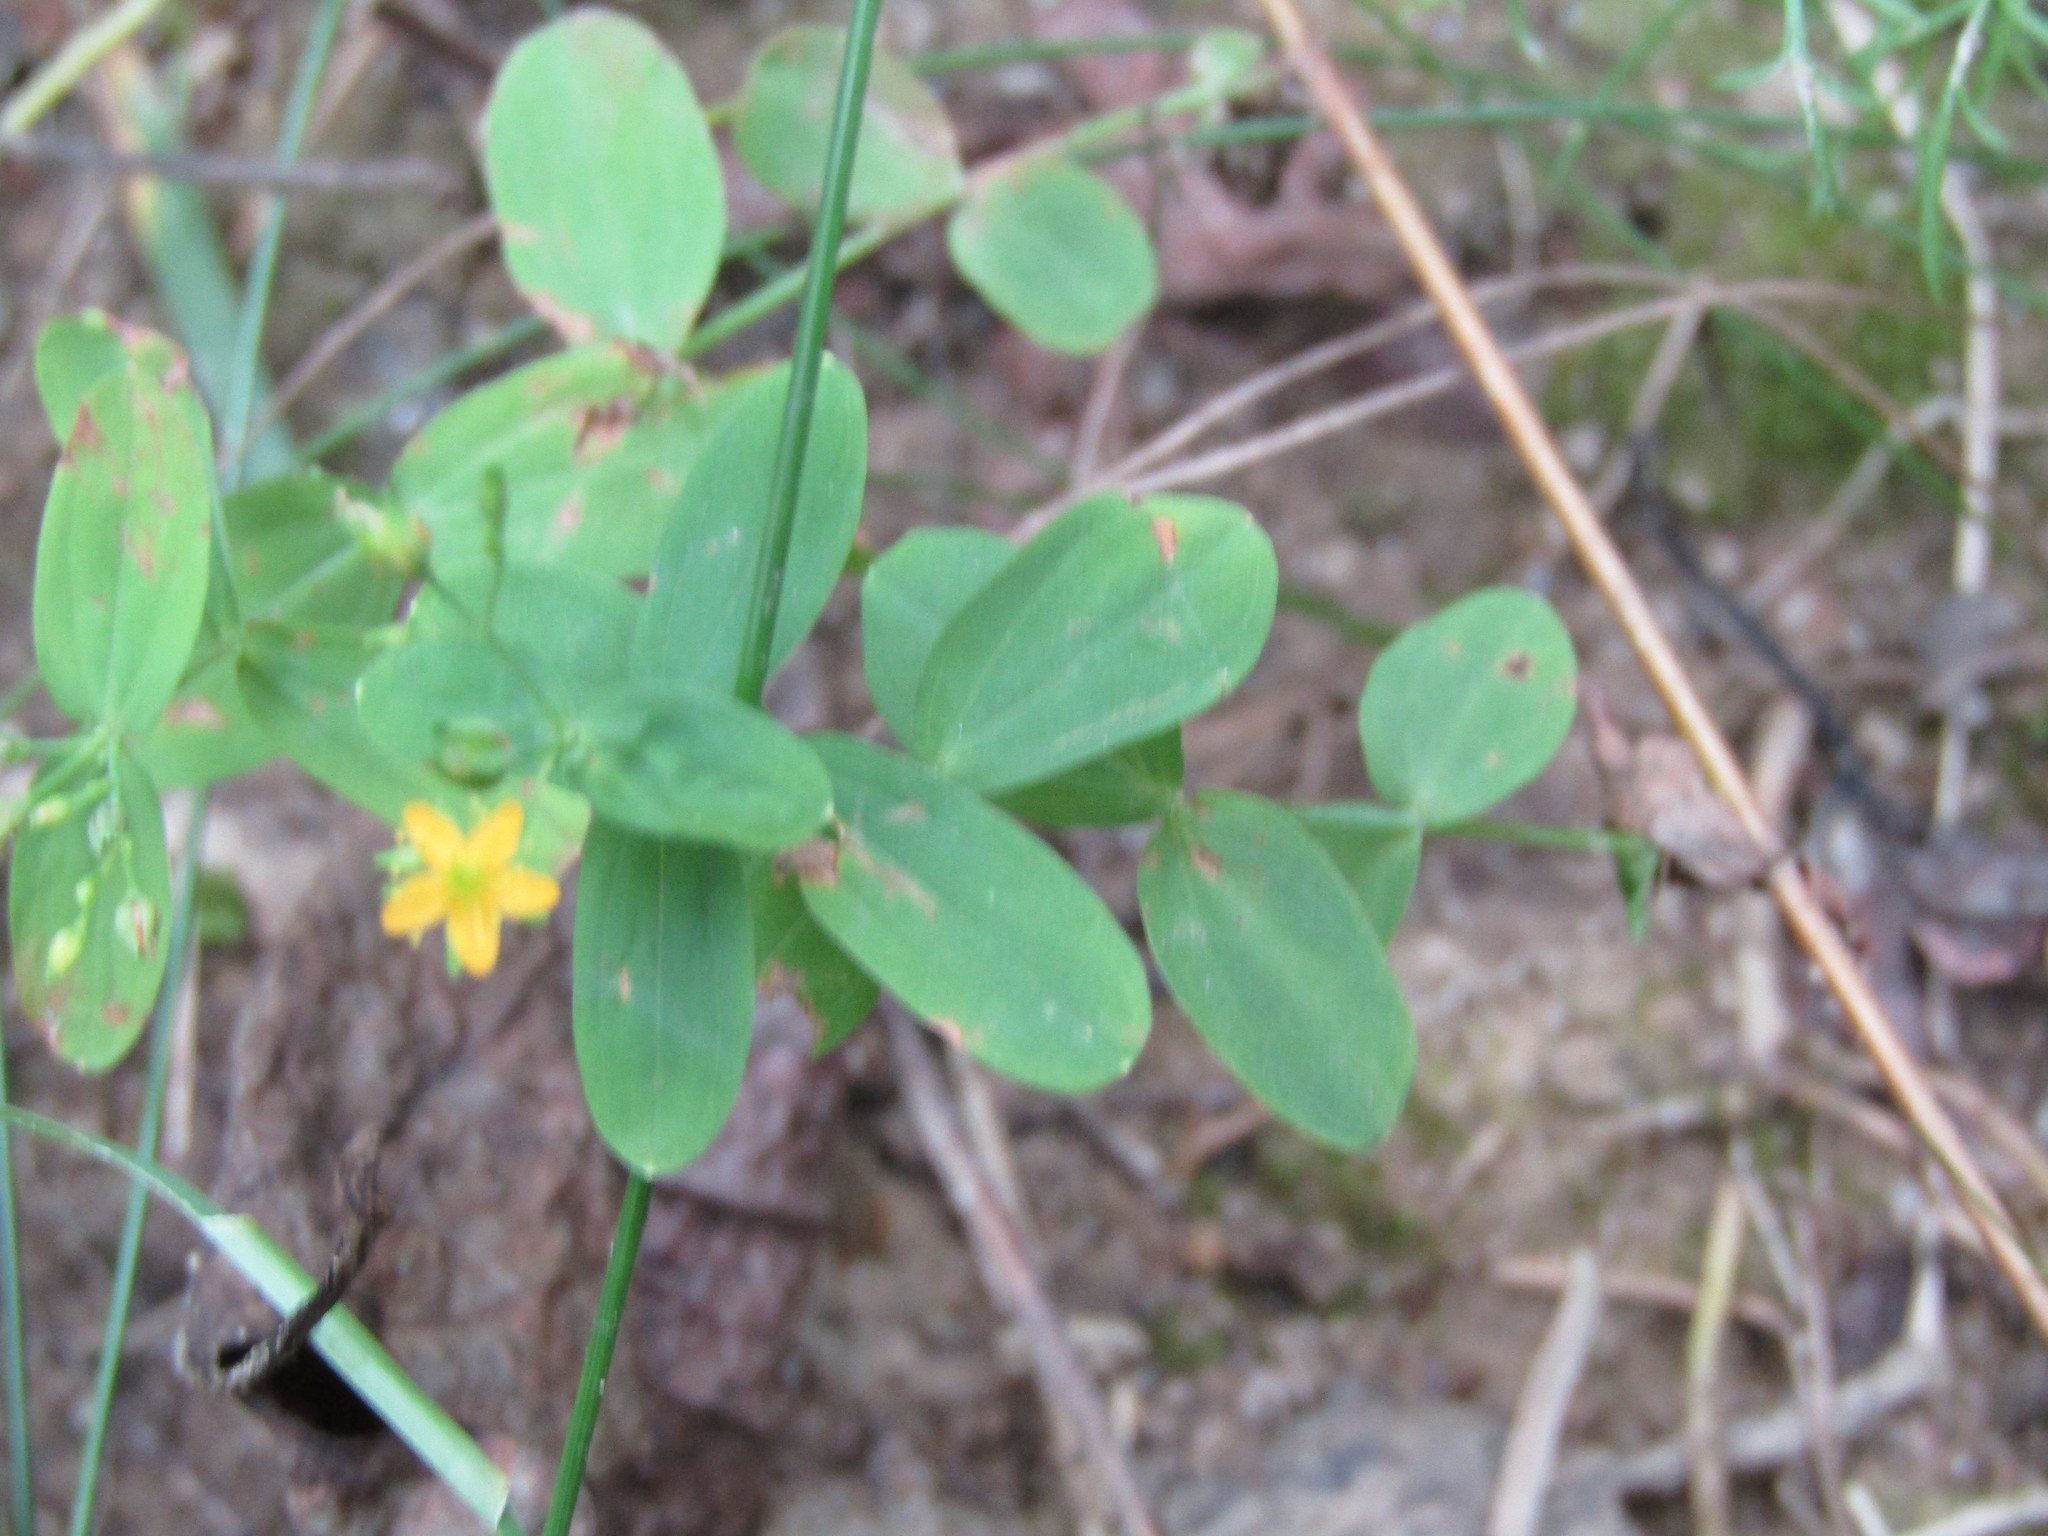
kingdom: Plantae
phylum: Tracheophyta
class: Magnoliopsida
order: Malpighiales
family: Hypericaceae
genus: Hypericum
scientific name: Hypericum mutilum
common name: Dwarf st. john's-wort
